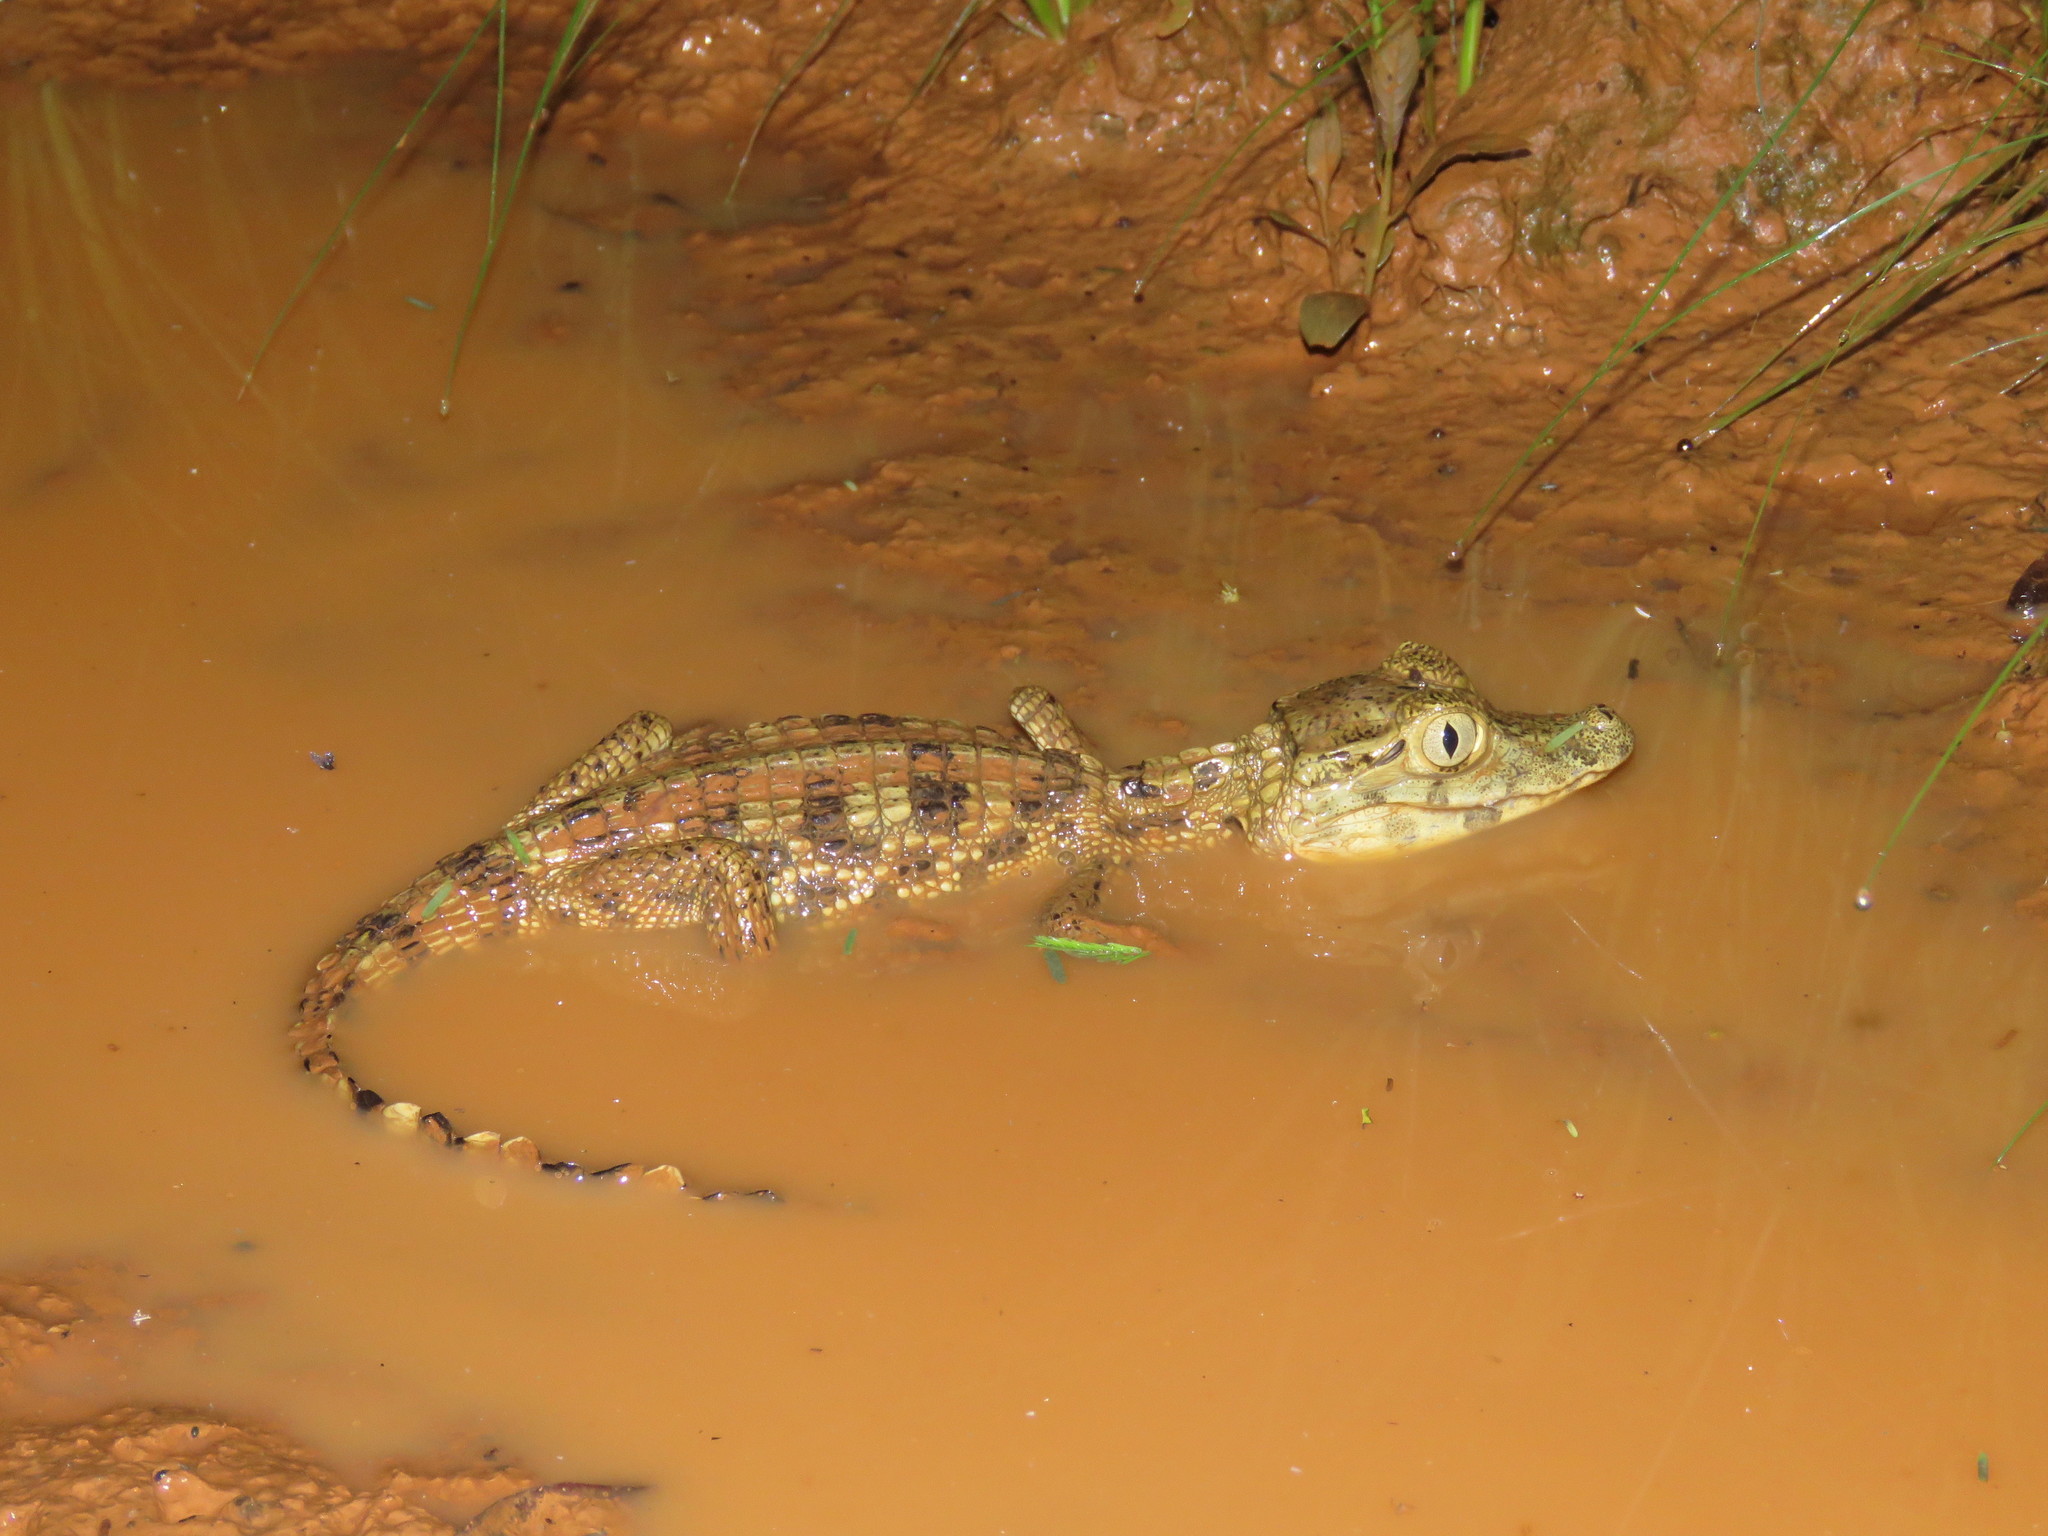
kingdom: Animalia
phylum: Chordata
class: Crocodylia
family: Alligatoridae
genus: Caiman
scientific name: Caiman yacare
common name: Yacare caiman
